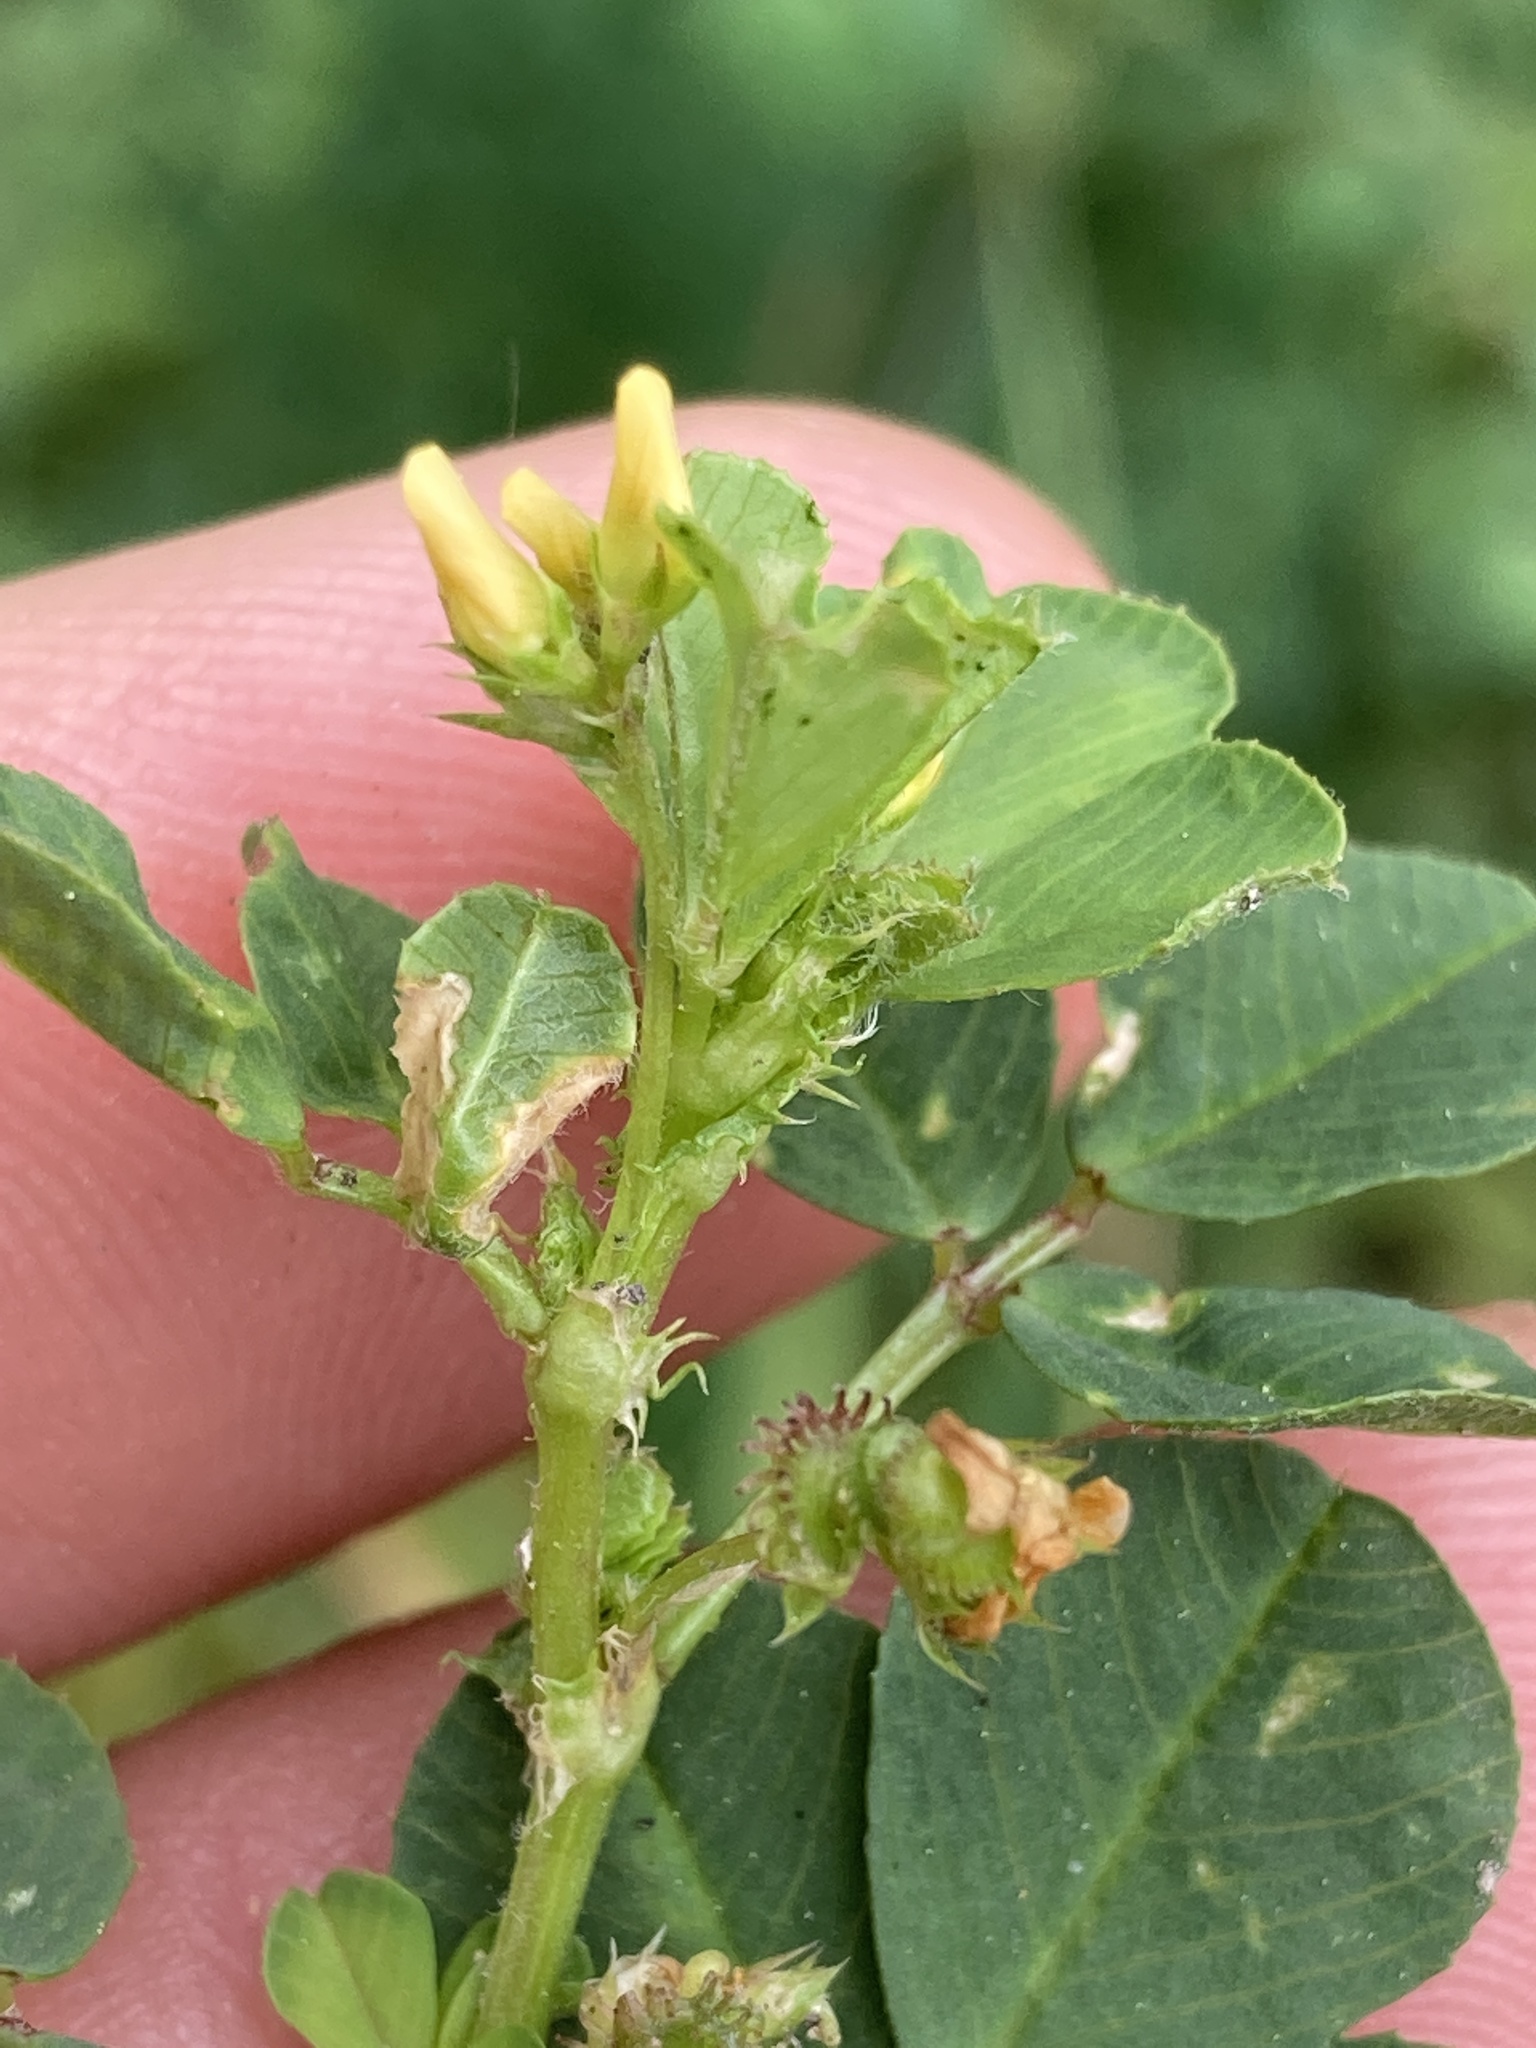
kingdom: Plantae
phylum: Tracheophyta
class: Magnoliopsida
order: Fabales
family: Fabaceae
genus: Medicago
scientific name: Medicago polymorpha
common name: Burclover
